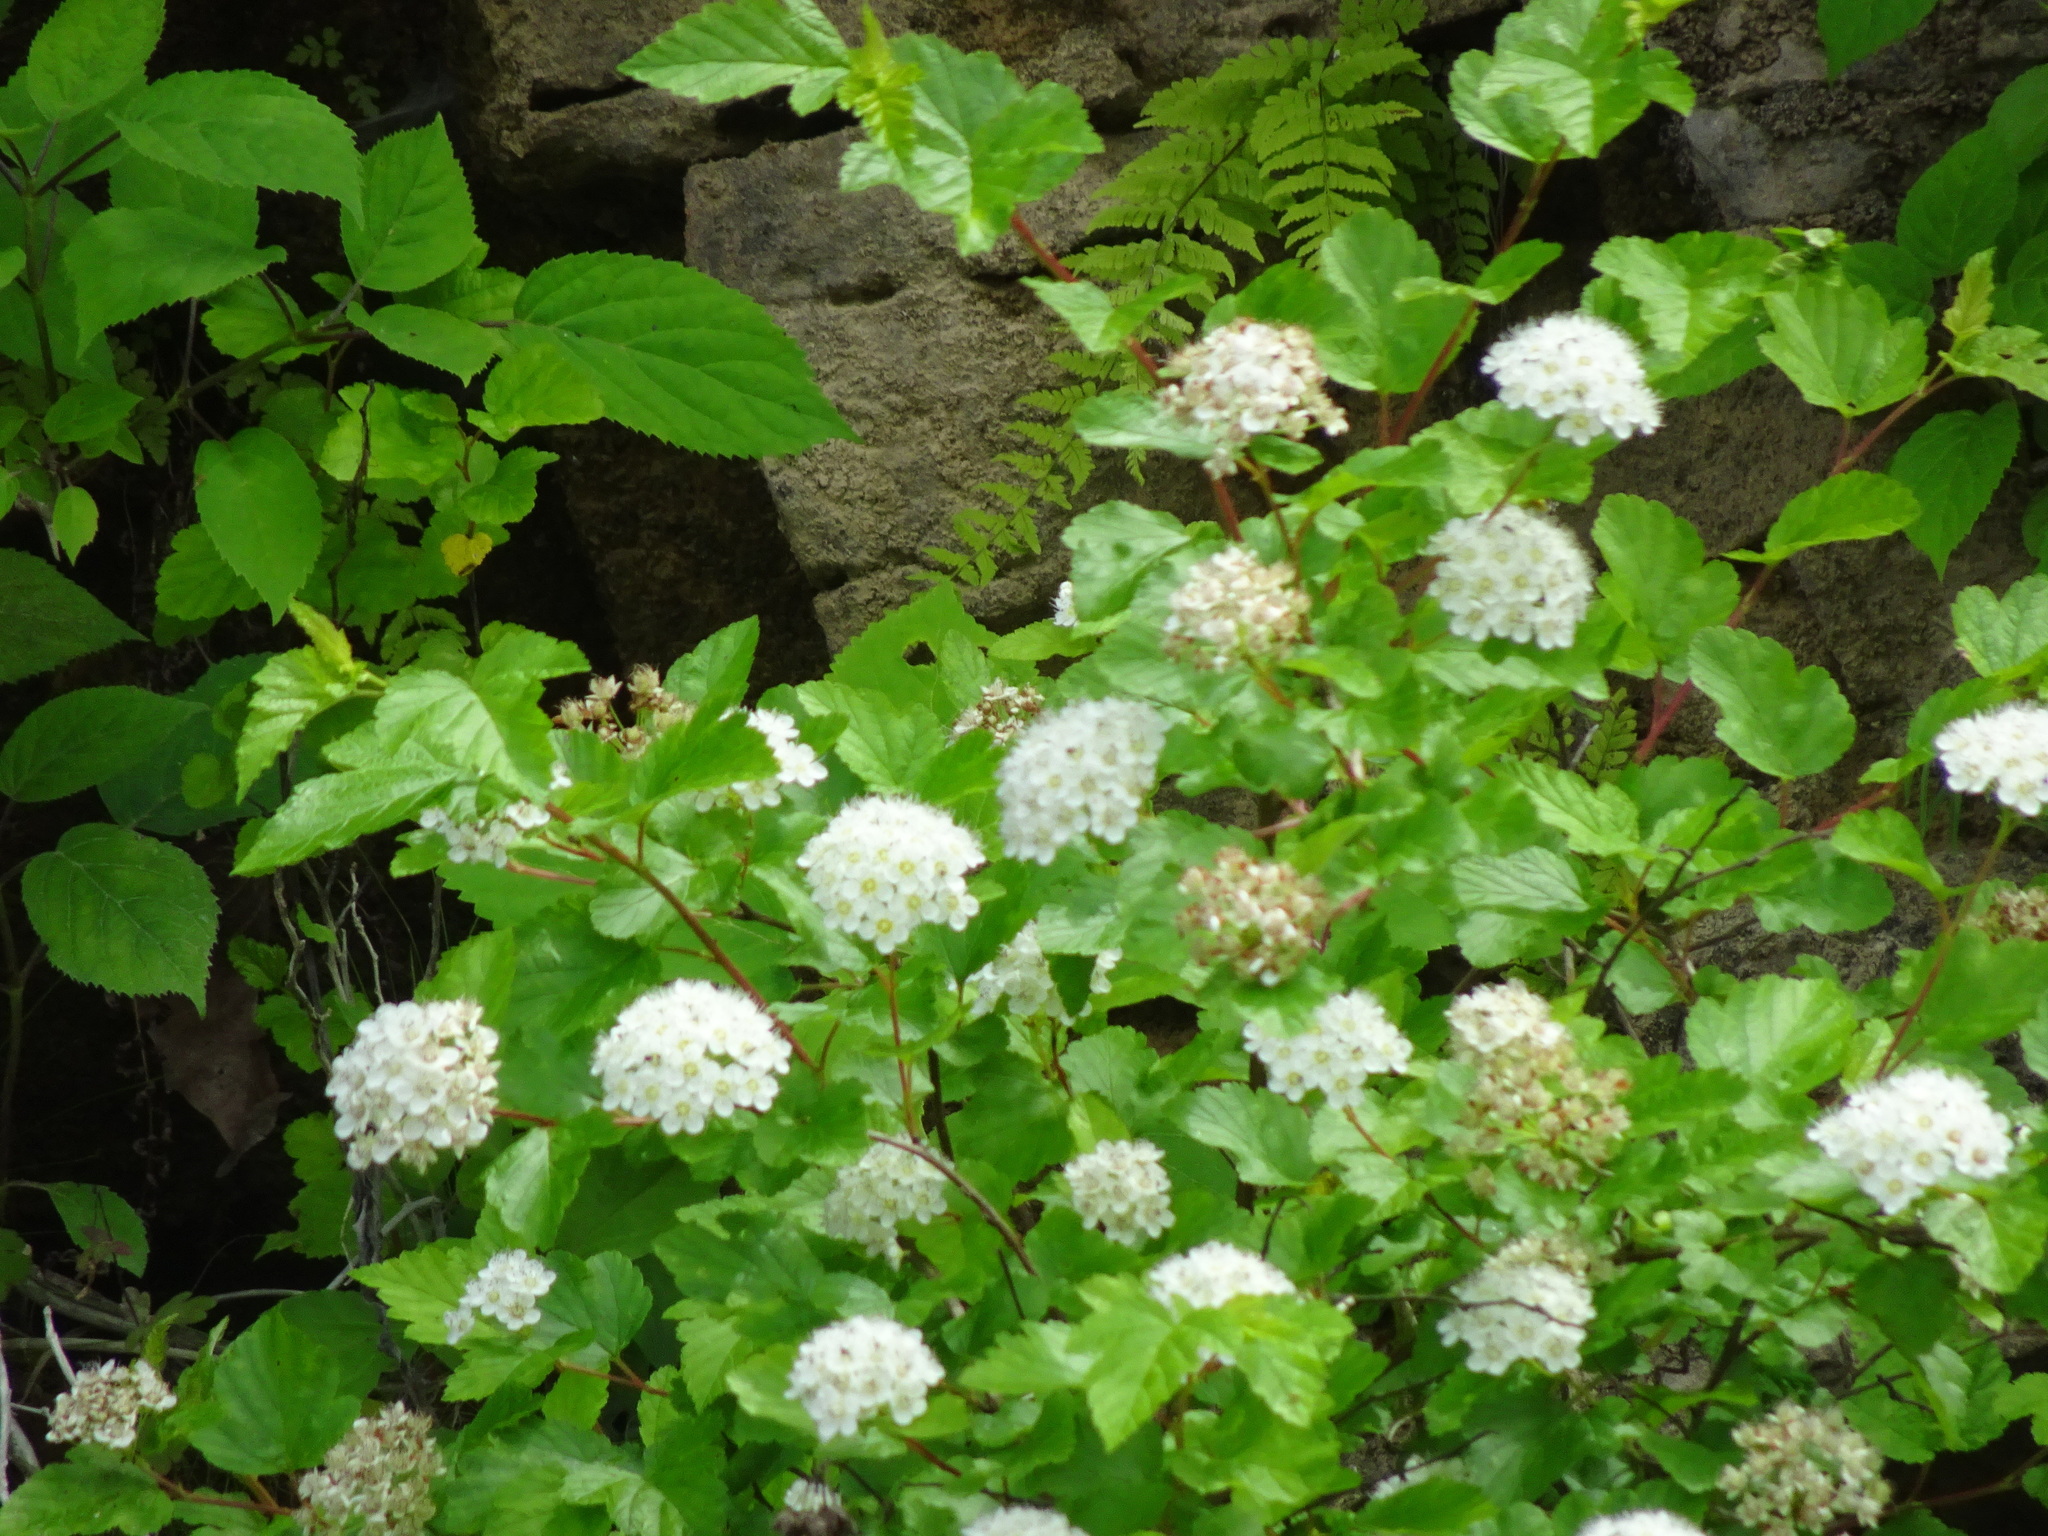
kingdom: Plantae
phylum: Tracheophyta
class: Magnoliopsida
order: Rosales
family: Rosaceae
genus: Physocarpus
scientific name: Physocarpus intermedius
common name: Midwestern ninebark
